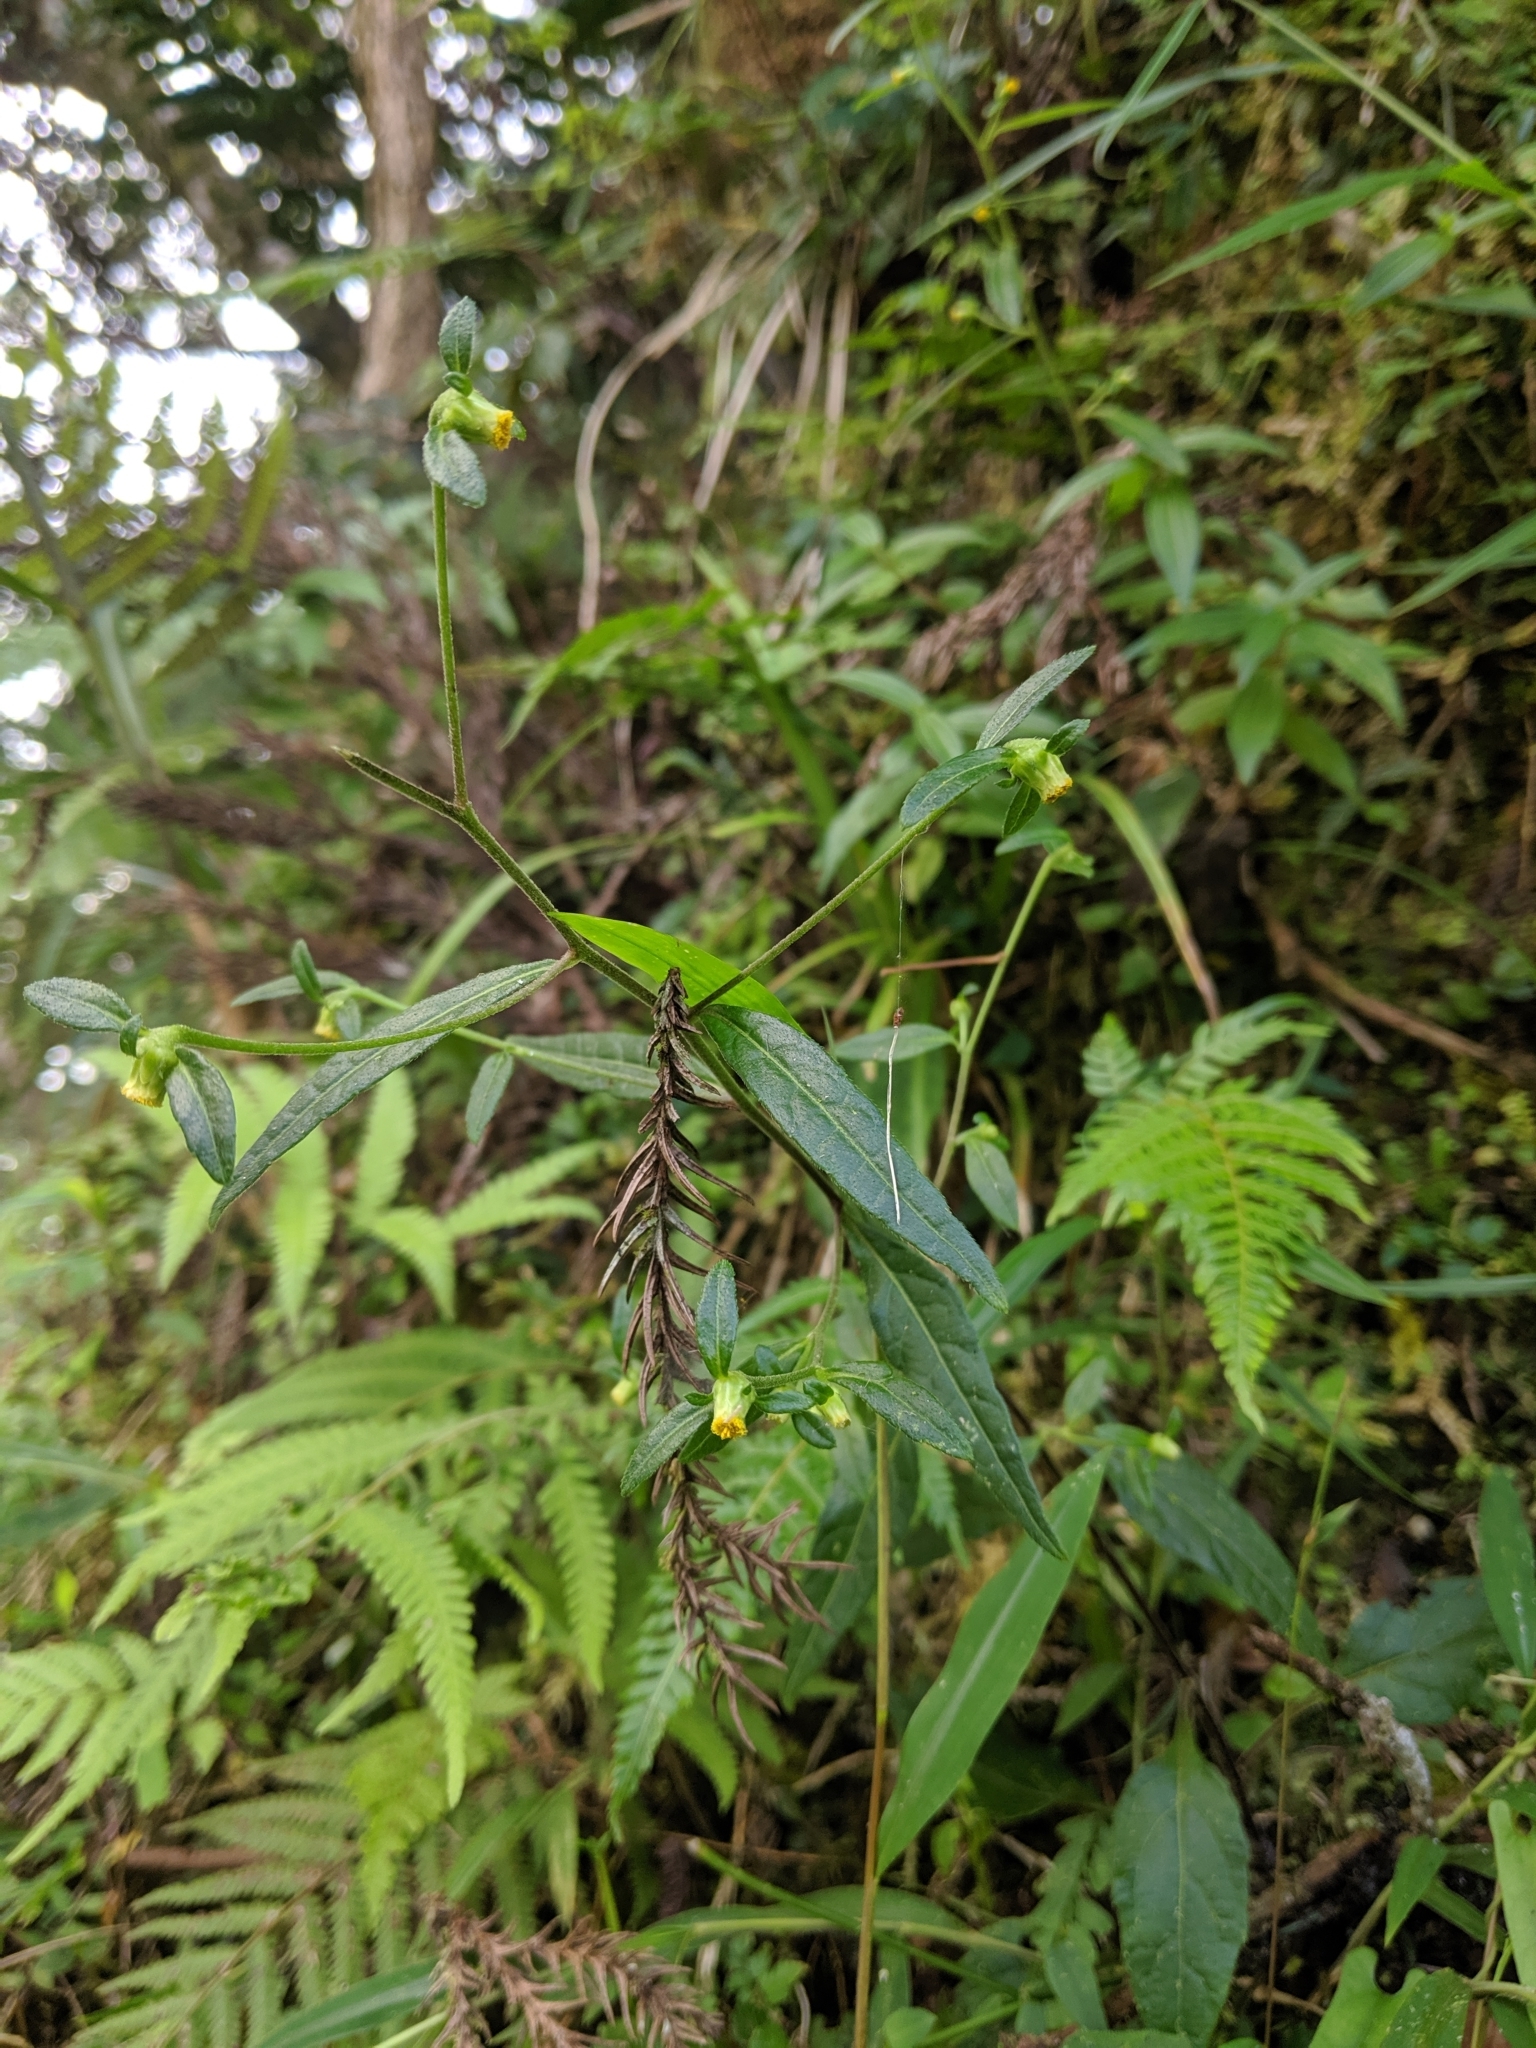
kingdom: Plantae
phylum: Tracheophyta
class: Magnoliopsida
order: Asterales
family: Asteraceae
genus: Carpesium
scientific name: Carpesium divaricatum
